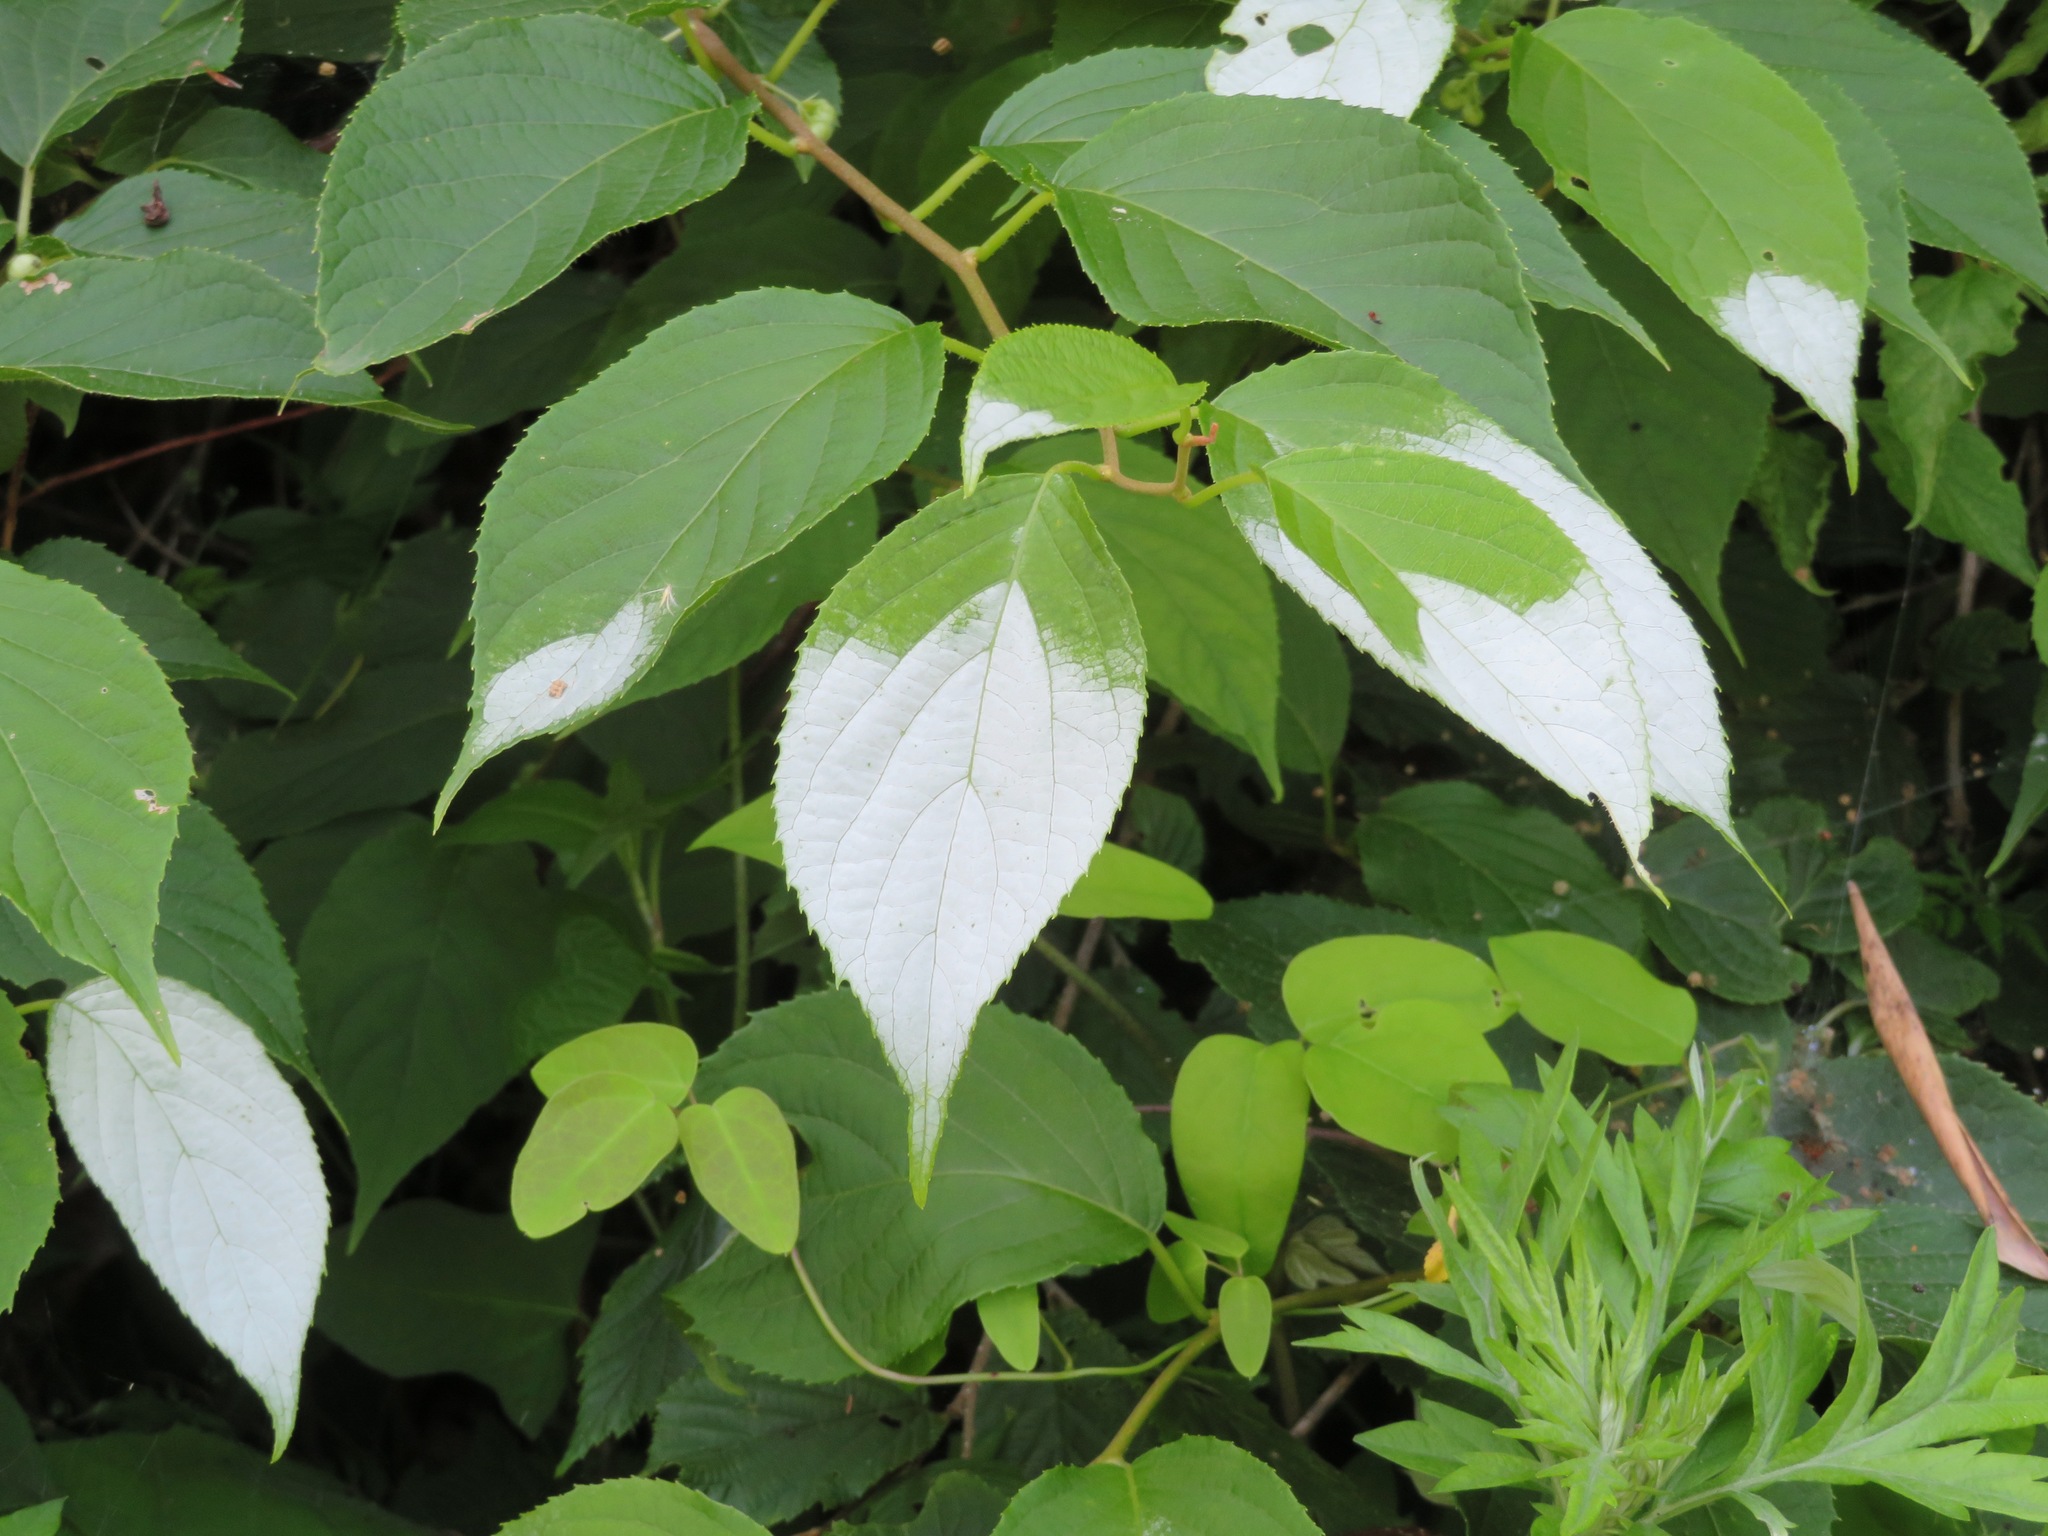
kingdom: Plantae
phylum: Tracheophyta
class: Magnoliopsida
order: Ericales
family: Actinidiaceae
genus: Actinidia
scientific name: Actinidia polygama
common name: Silver vine
